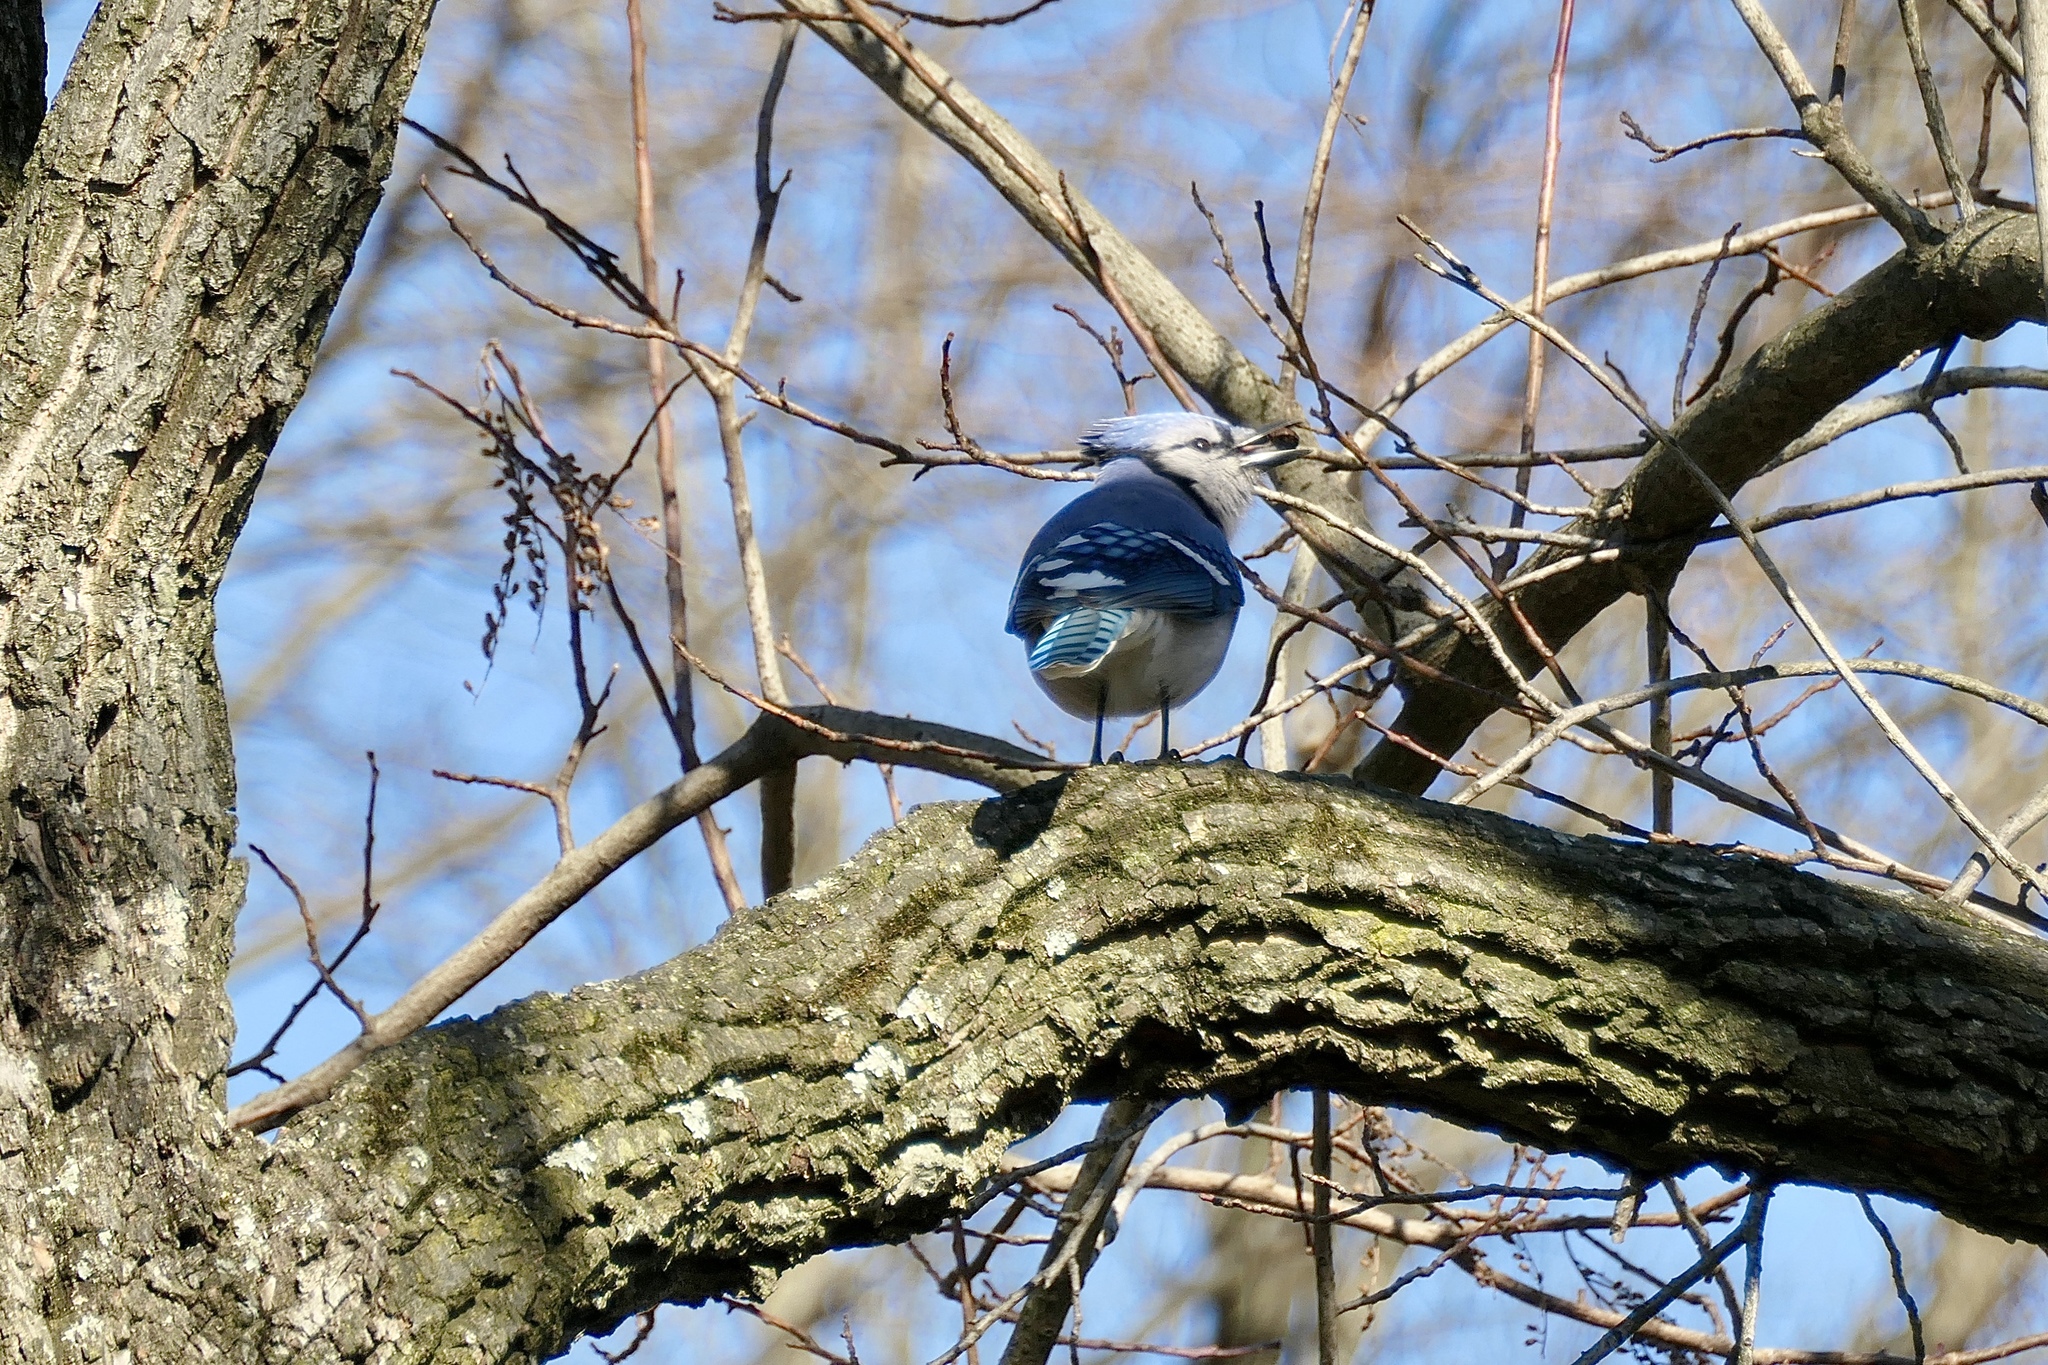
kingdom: Animalia
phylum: Chordata
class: Aves
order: Passeriformes
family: Corvidae
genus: Cyanocitta
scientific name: Cyanocitta cristata
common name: Blue jay
